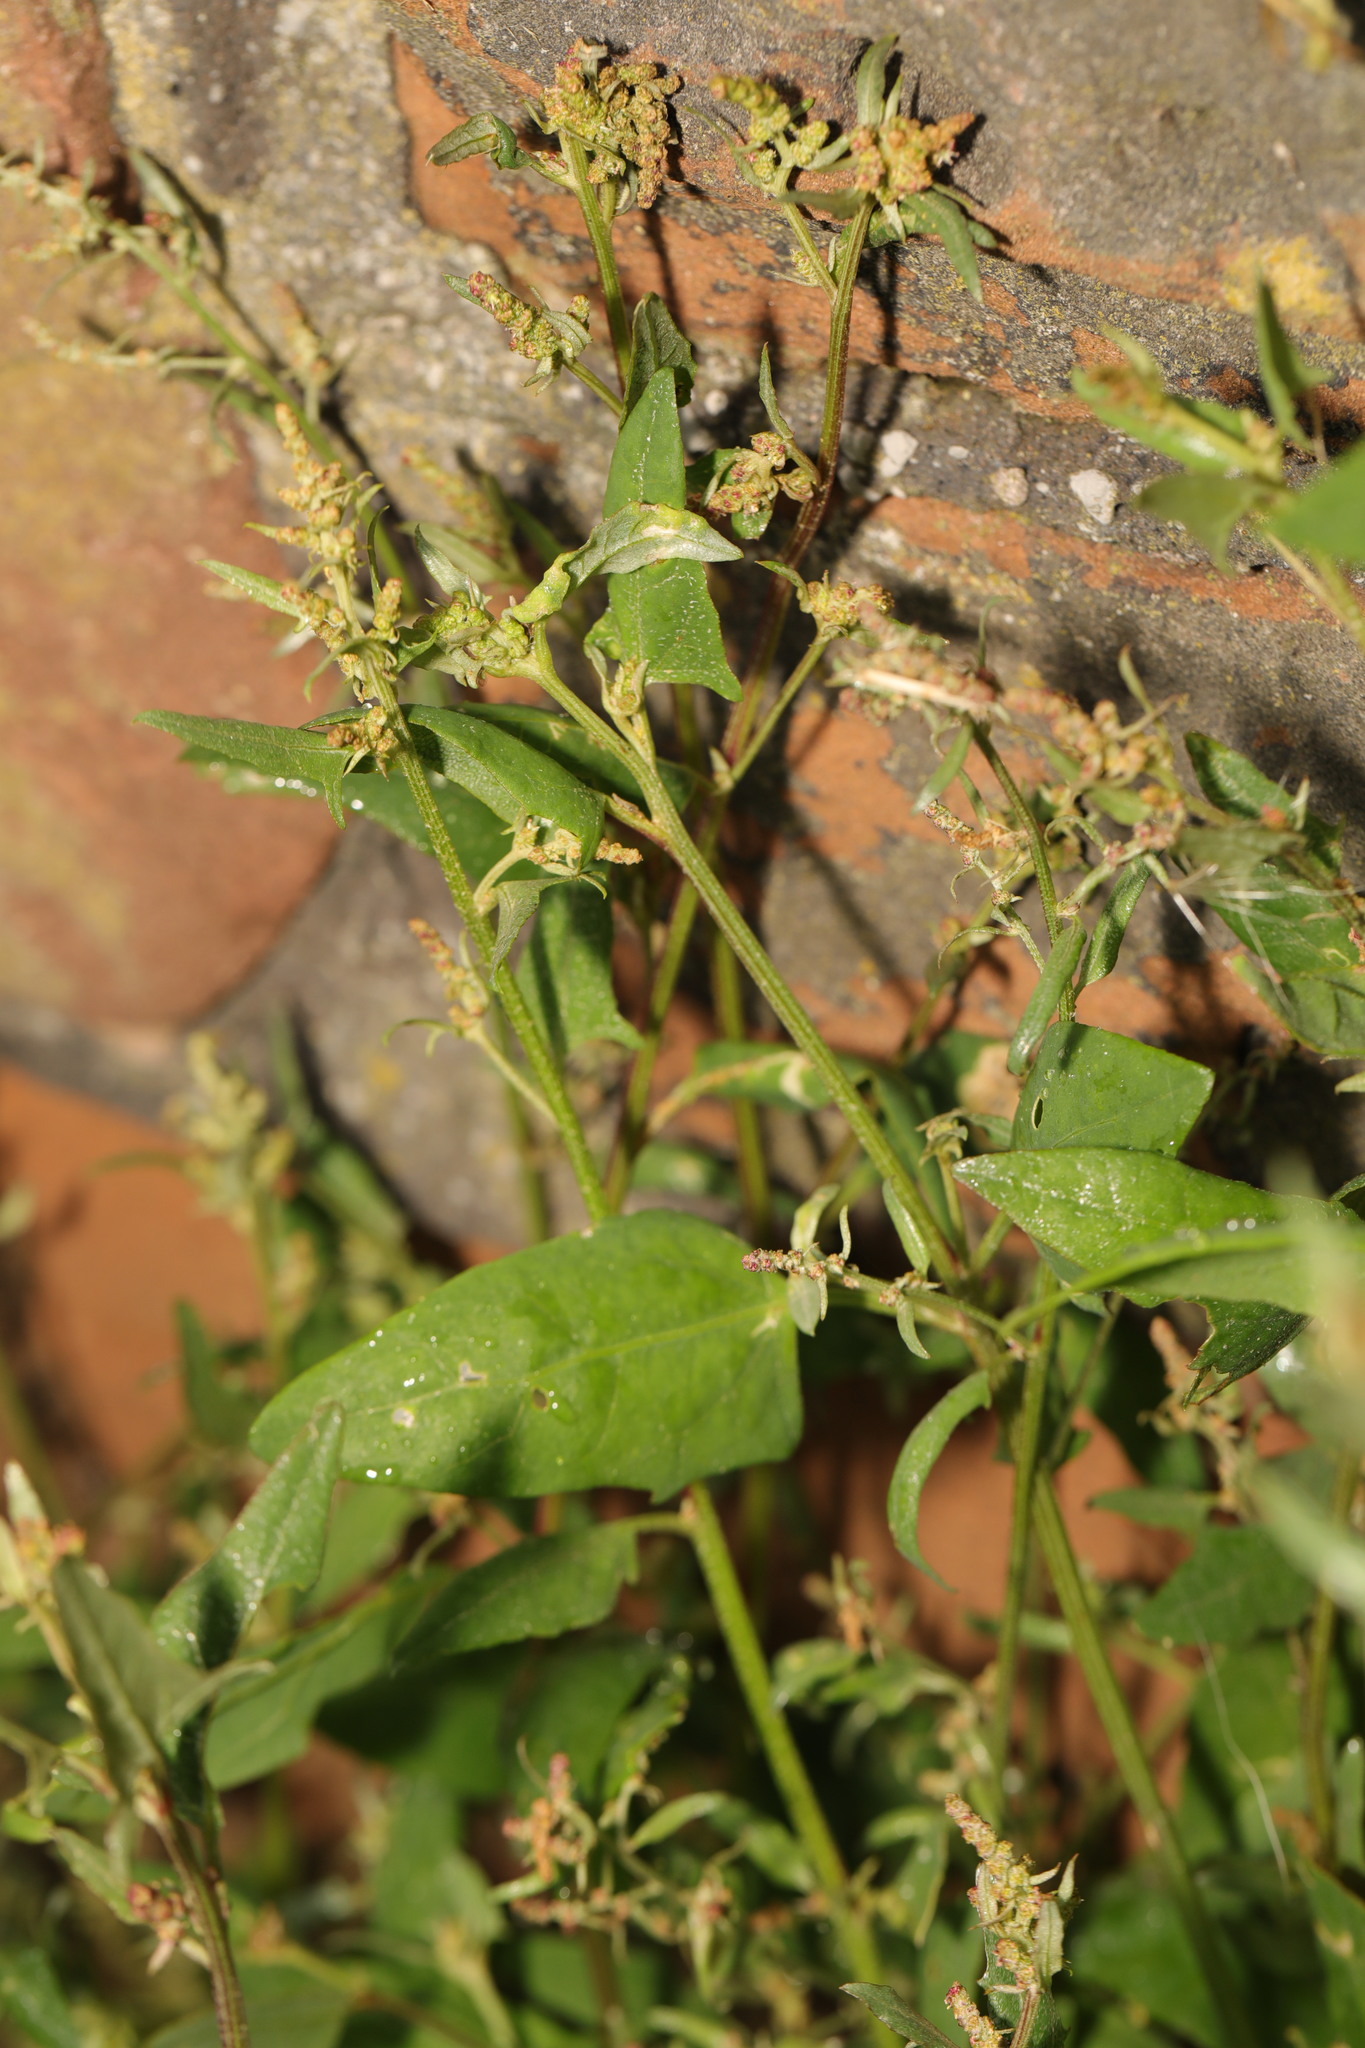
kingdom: Plantae
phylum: Tracheophyta
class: Magnoliopsida
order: Caryophyllales
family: Amaranthaceae
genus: Atriplex
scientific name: Atriplex patula
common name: Common orache
